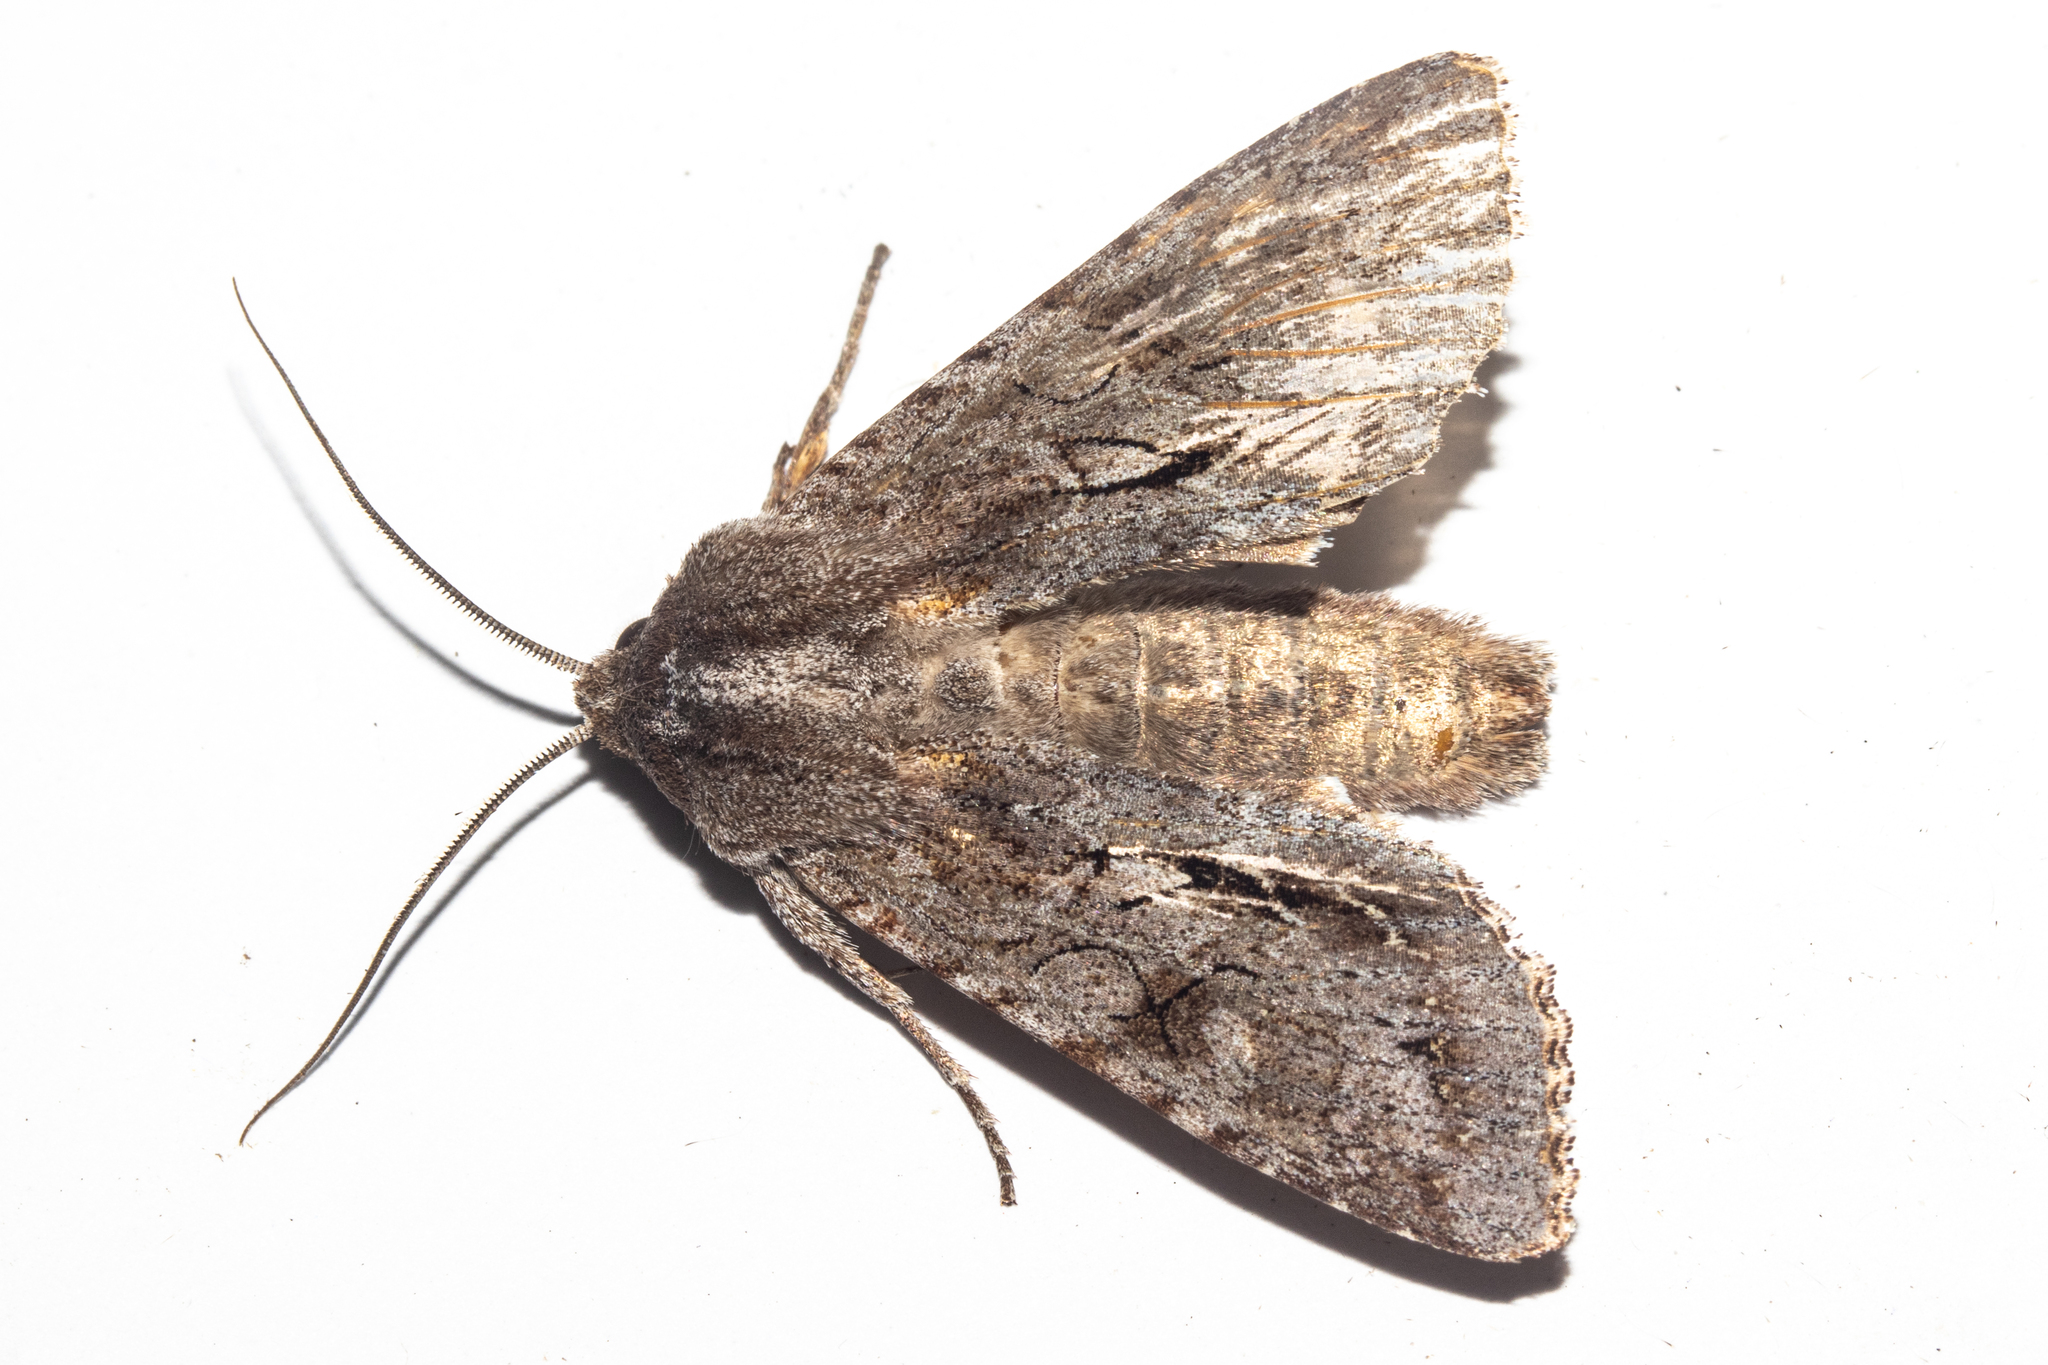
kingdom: Animalia
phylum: Arthropoda
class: Insecta
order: Lepidoptera
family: Noctuidae
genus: Ichneutica
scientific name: Ichneutica
